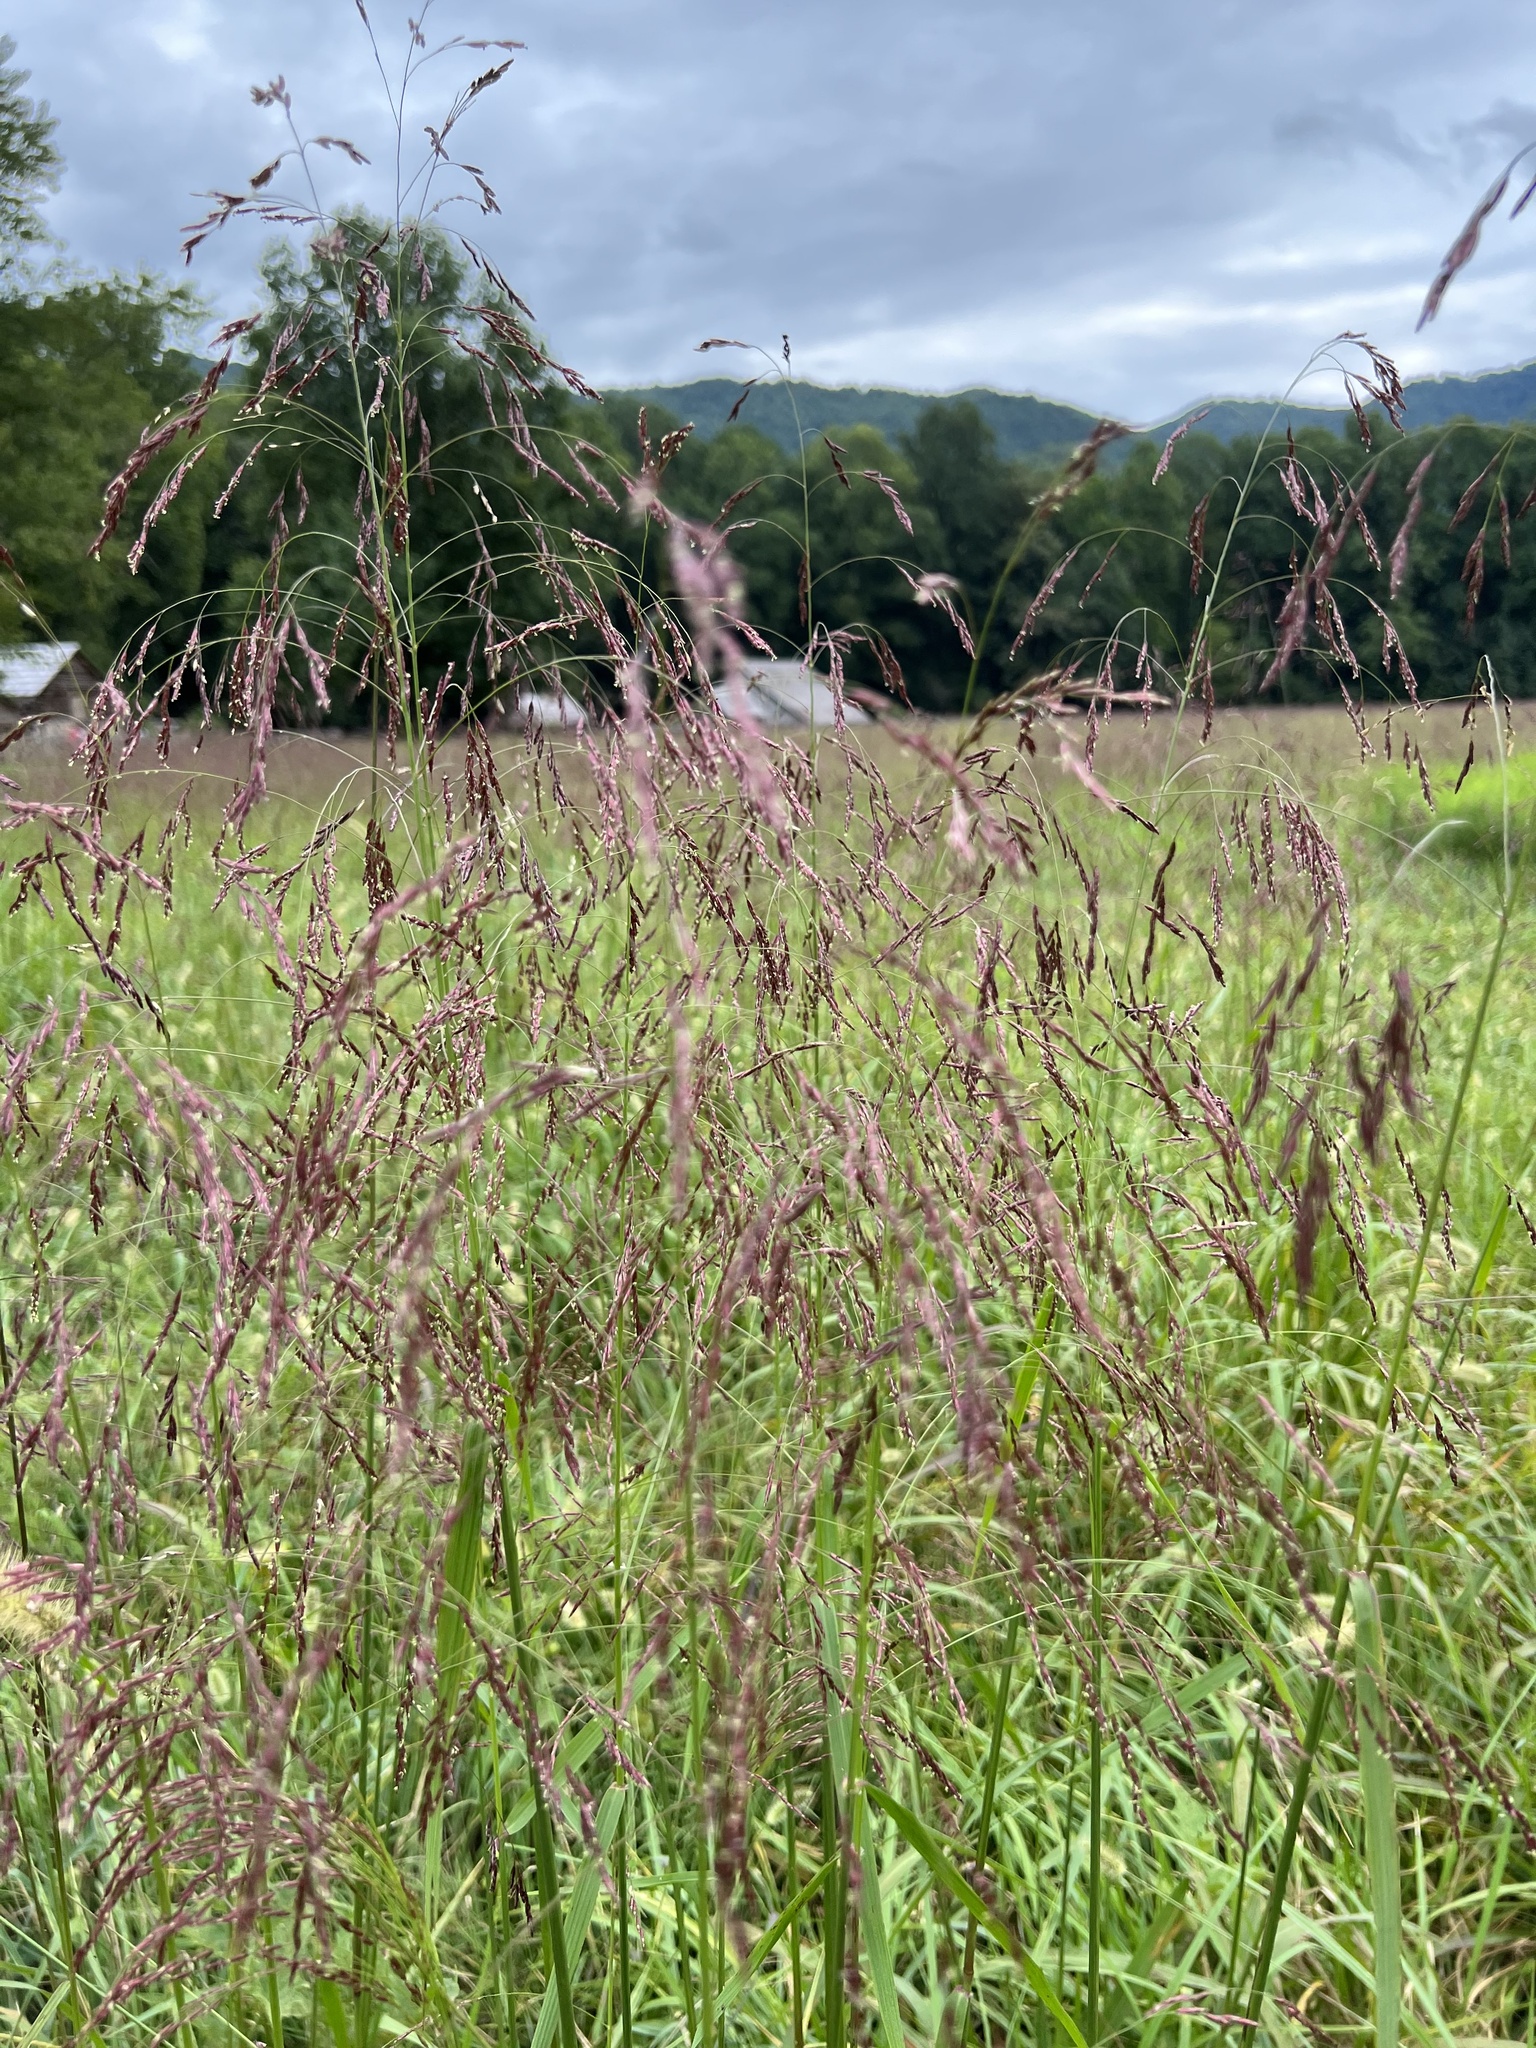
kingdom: Plantae
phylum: Tracheophyta
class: Liliopsida
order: Poales
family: Poaceae
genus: Tridens
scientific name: Tridens flavus
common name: Purpletop
